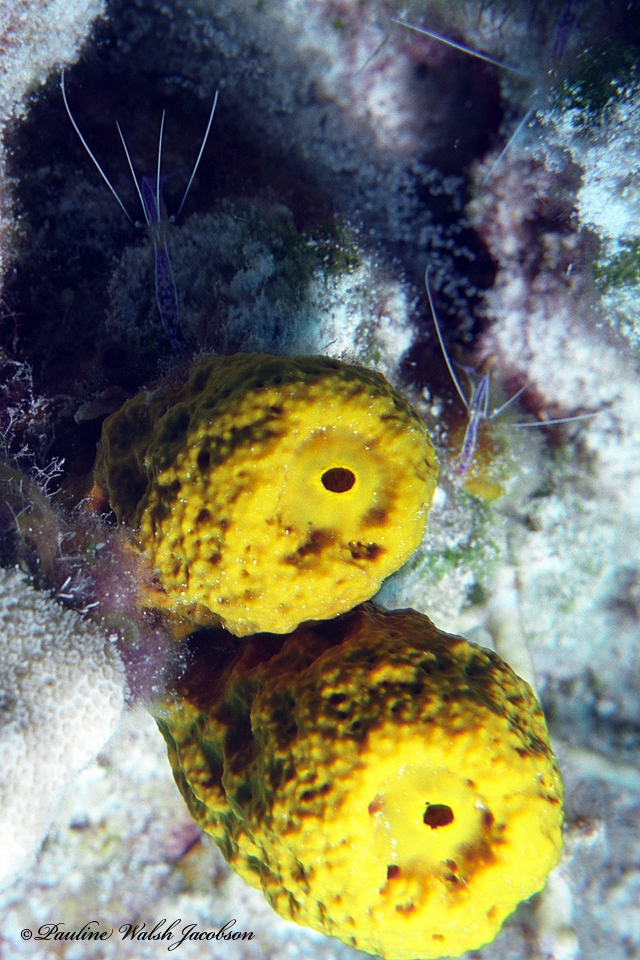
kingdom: Animalia
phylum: Arthropoda
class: Malacostraca
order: Decapoda
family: Palaemonidae
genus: Ancylomenes
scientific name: Ancylomenes pedersoni
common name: Pederson's cleaning shrimp
